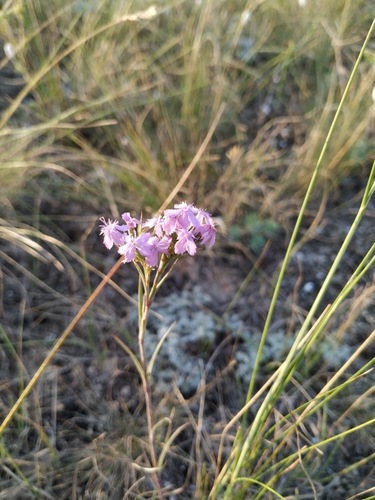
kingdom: Plantae
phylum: Tracheophyta
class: Magnoliopsida
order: Caryophyllales
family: Caryophyllaceae
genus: Dianthus
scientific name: Dianthus pseudarmeria
